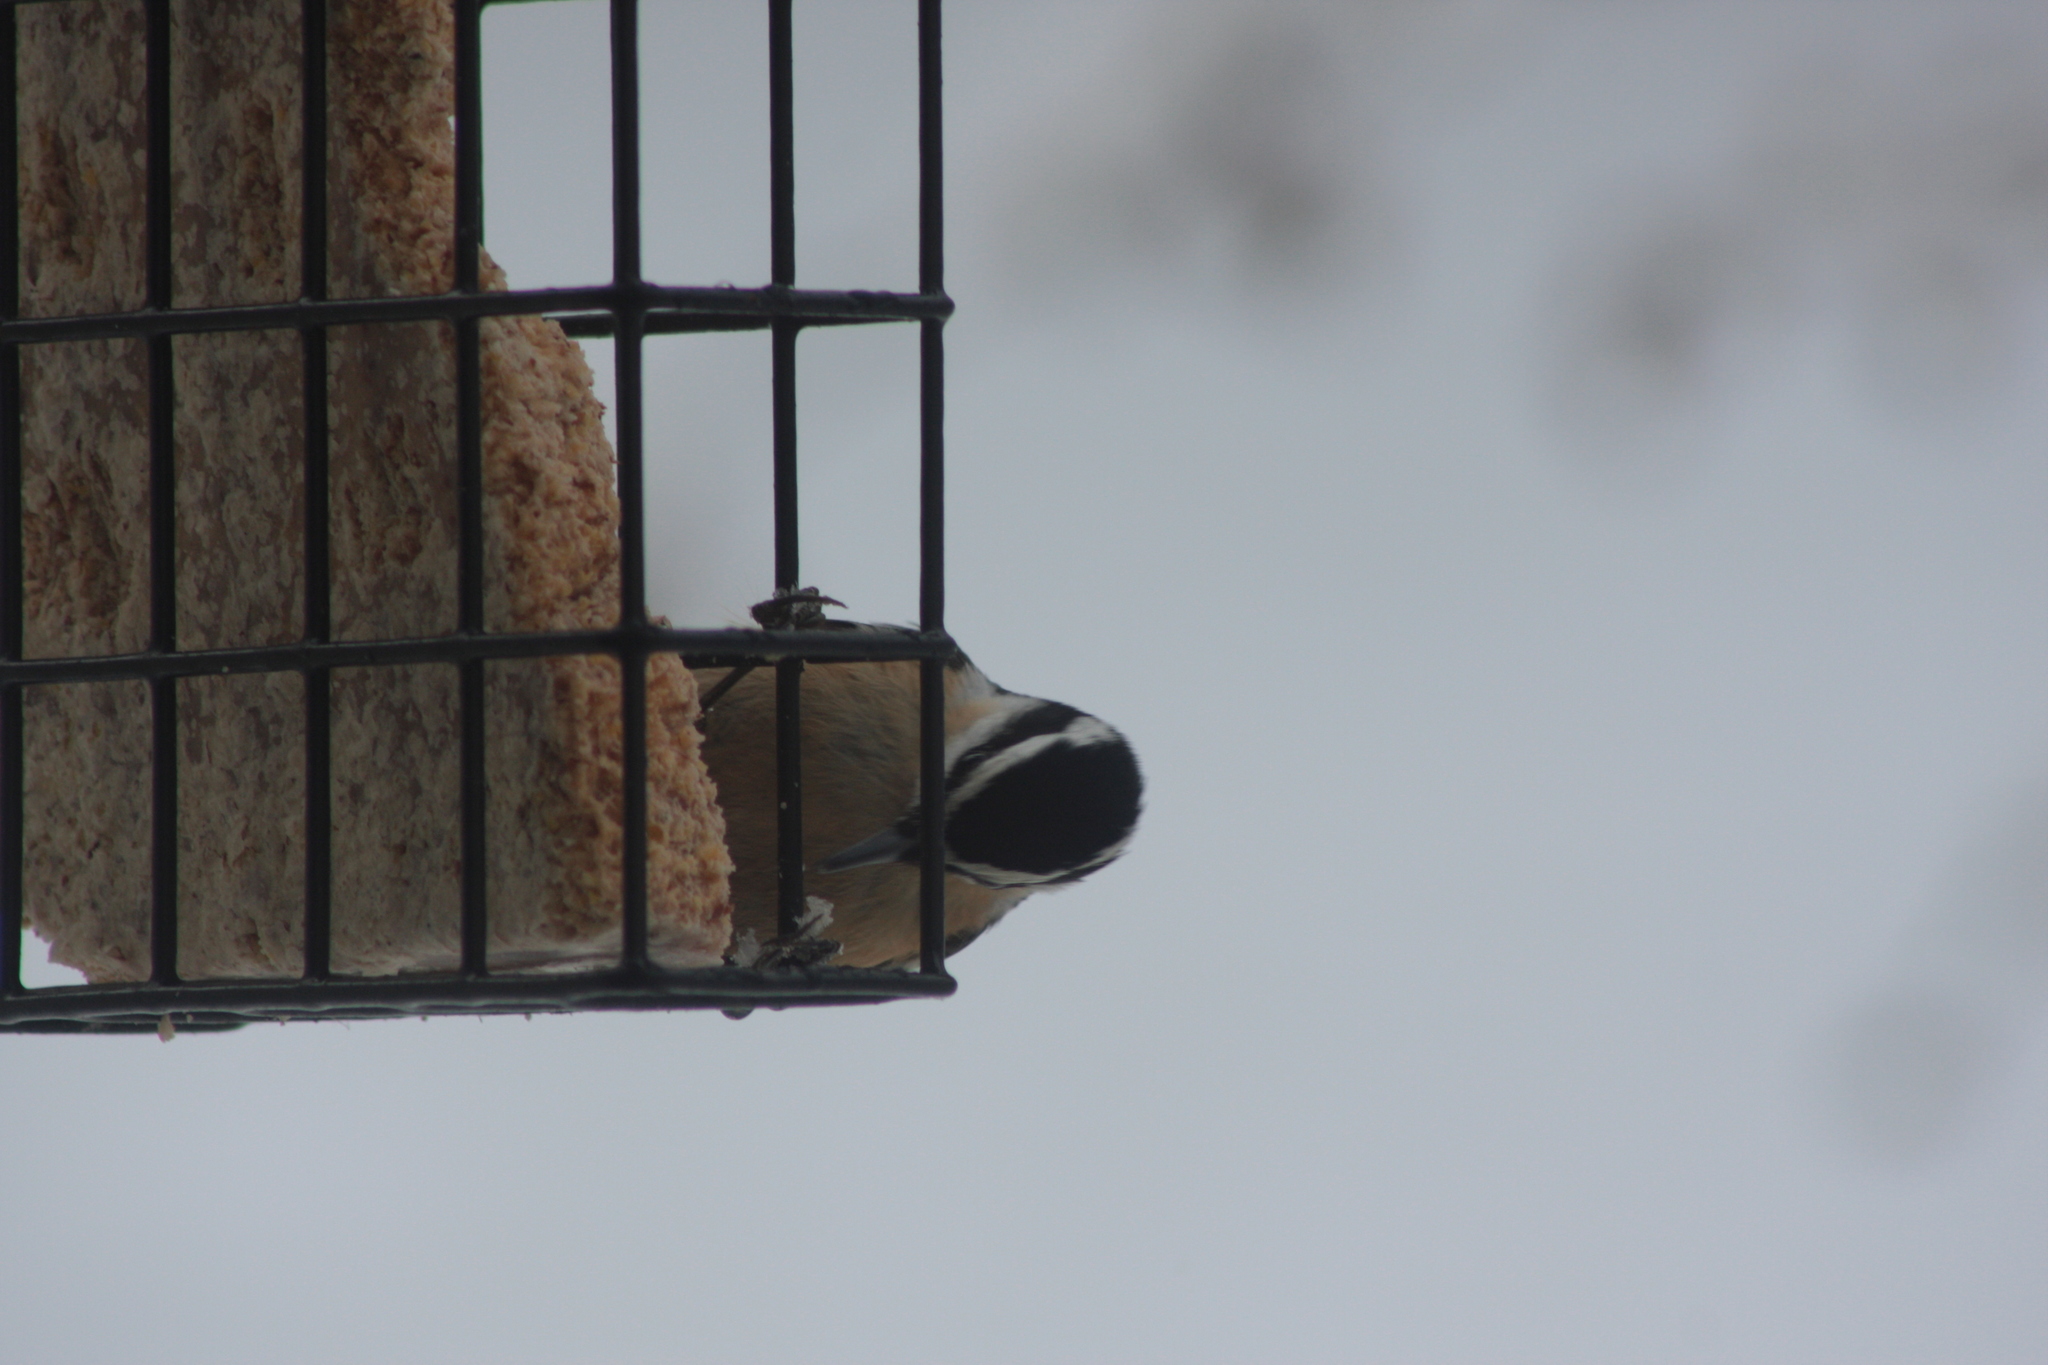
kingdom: Animalia
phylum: Chordata
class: Aves
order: Passeriformes
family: Sittidae
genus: Sitta
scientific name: Sitta canadensis
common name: Red-breasted nuthatch
